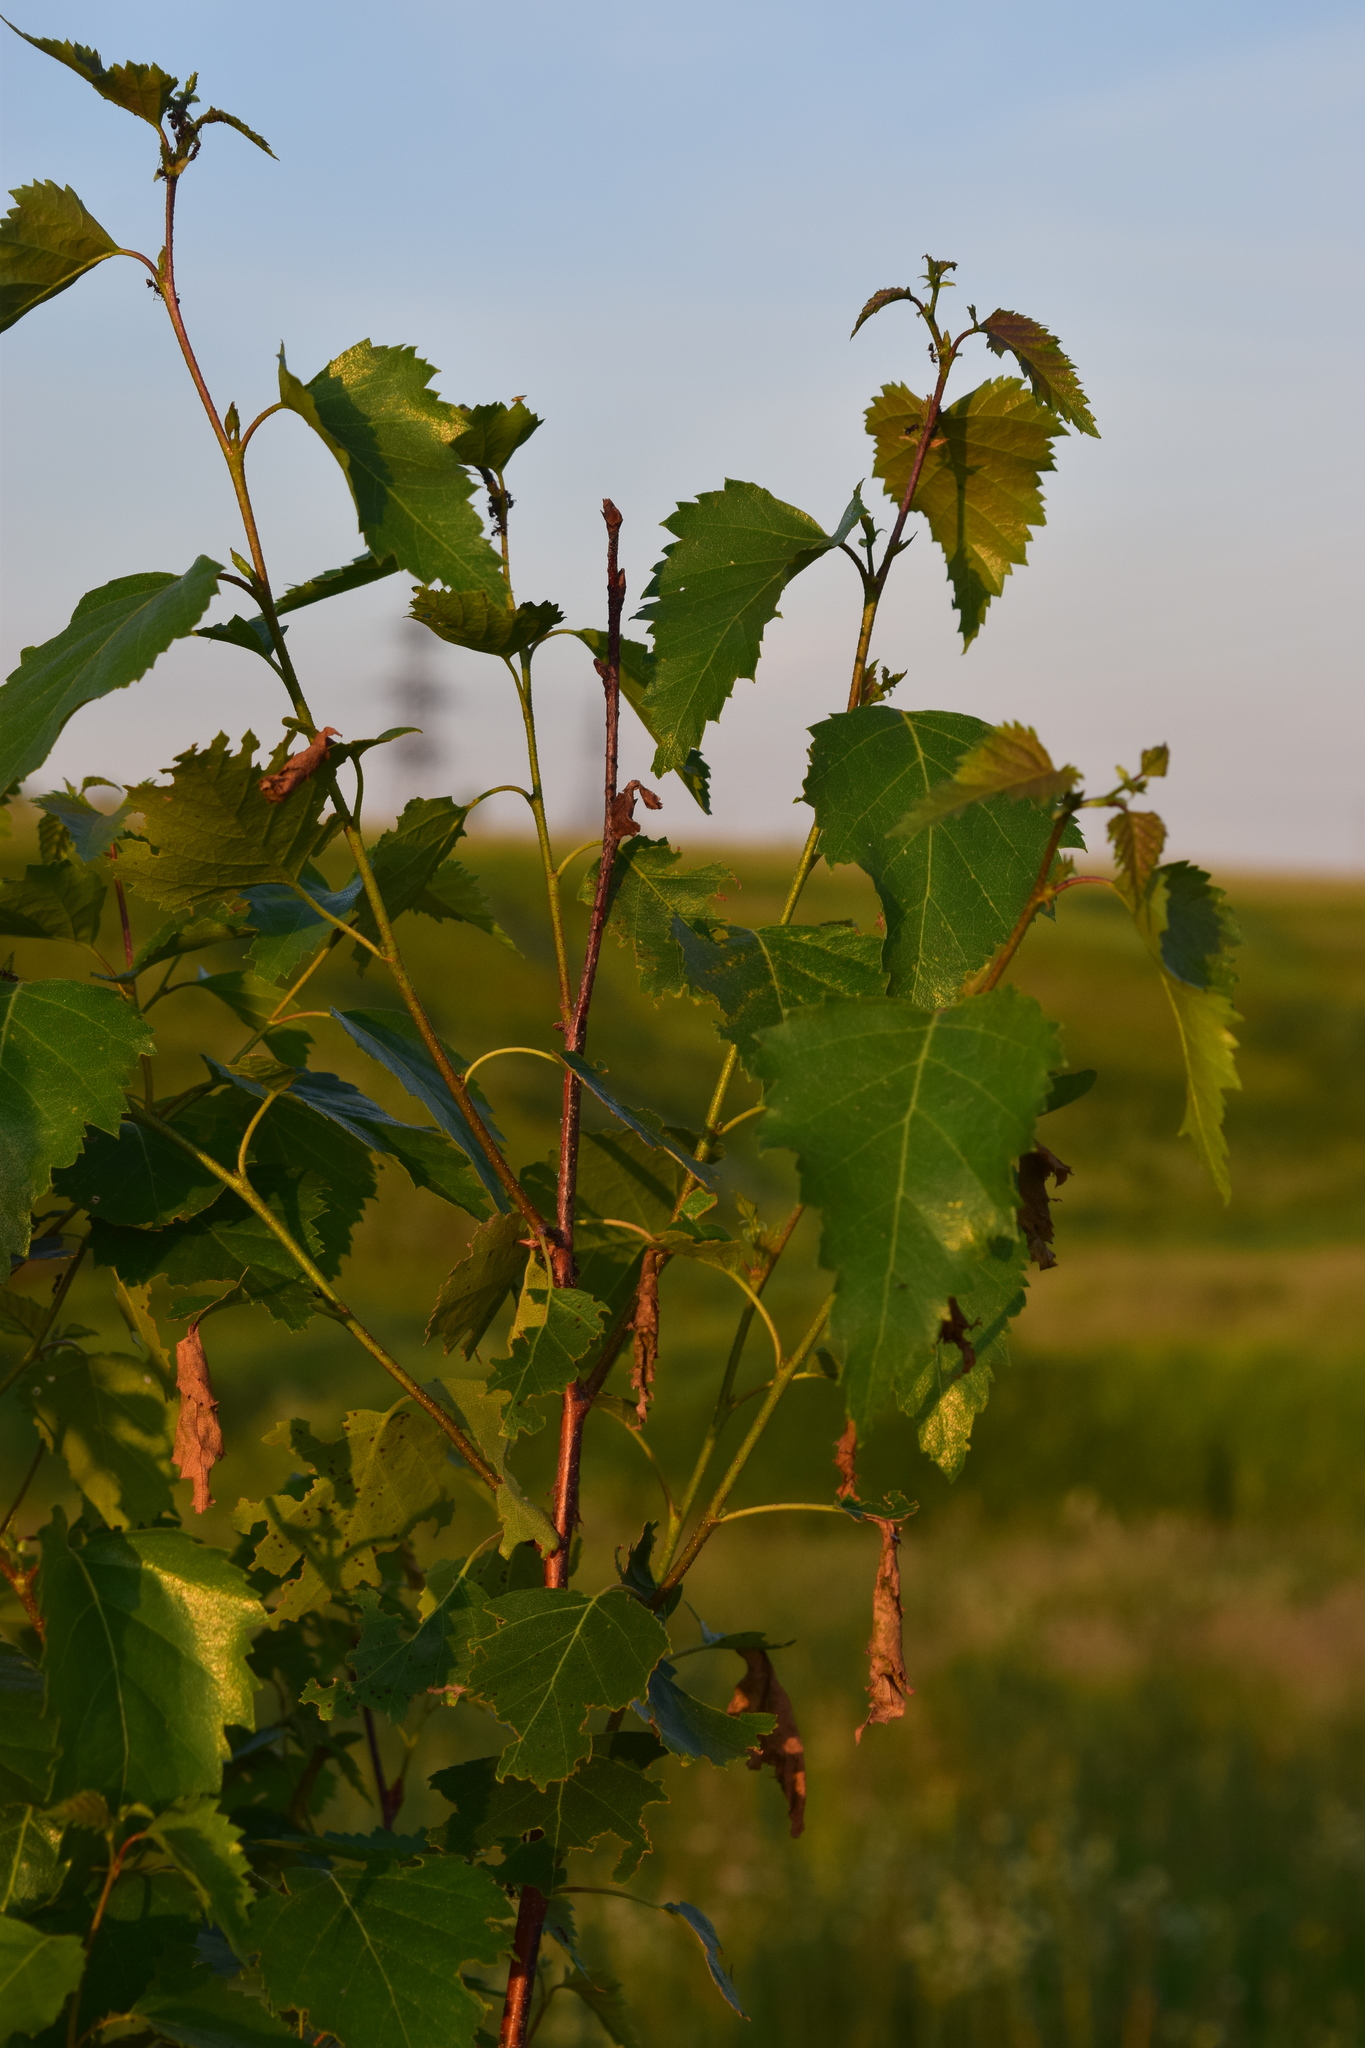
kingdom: Plantae
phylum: Tracheophyta
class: Magnoliopsida
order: Fagales
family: Betulaceae
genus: Betula
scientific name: Betula pendula
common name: Silver birch
